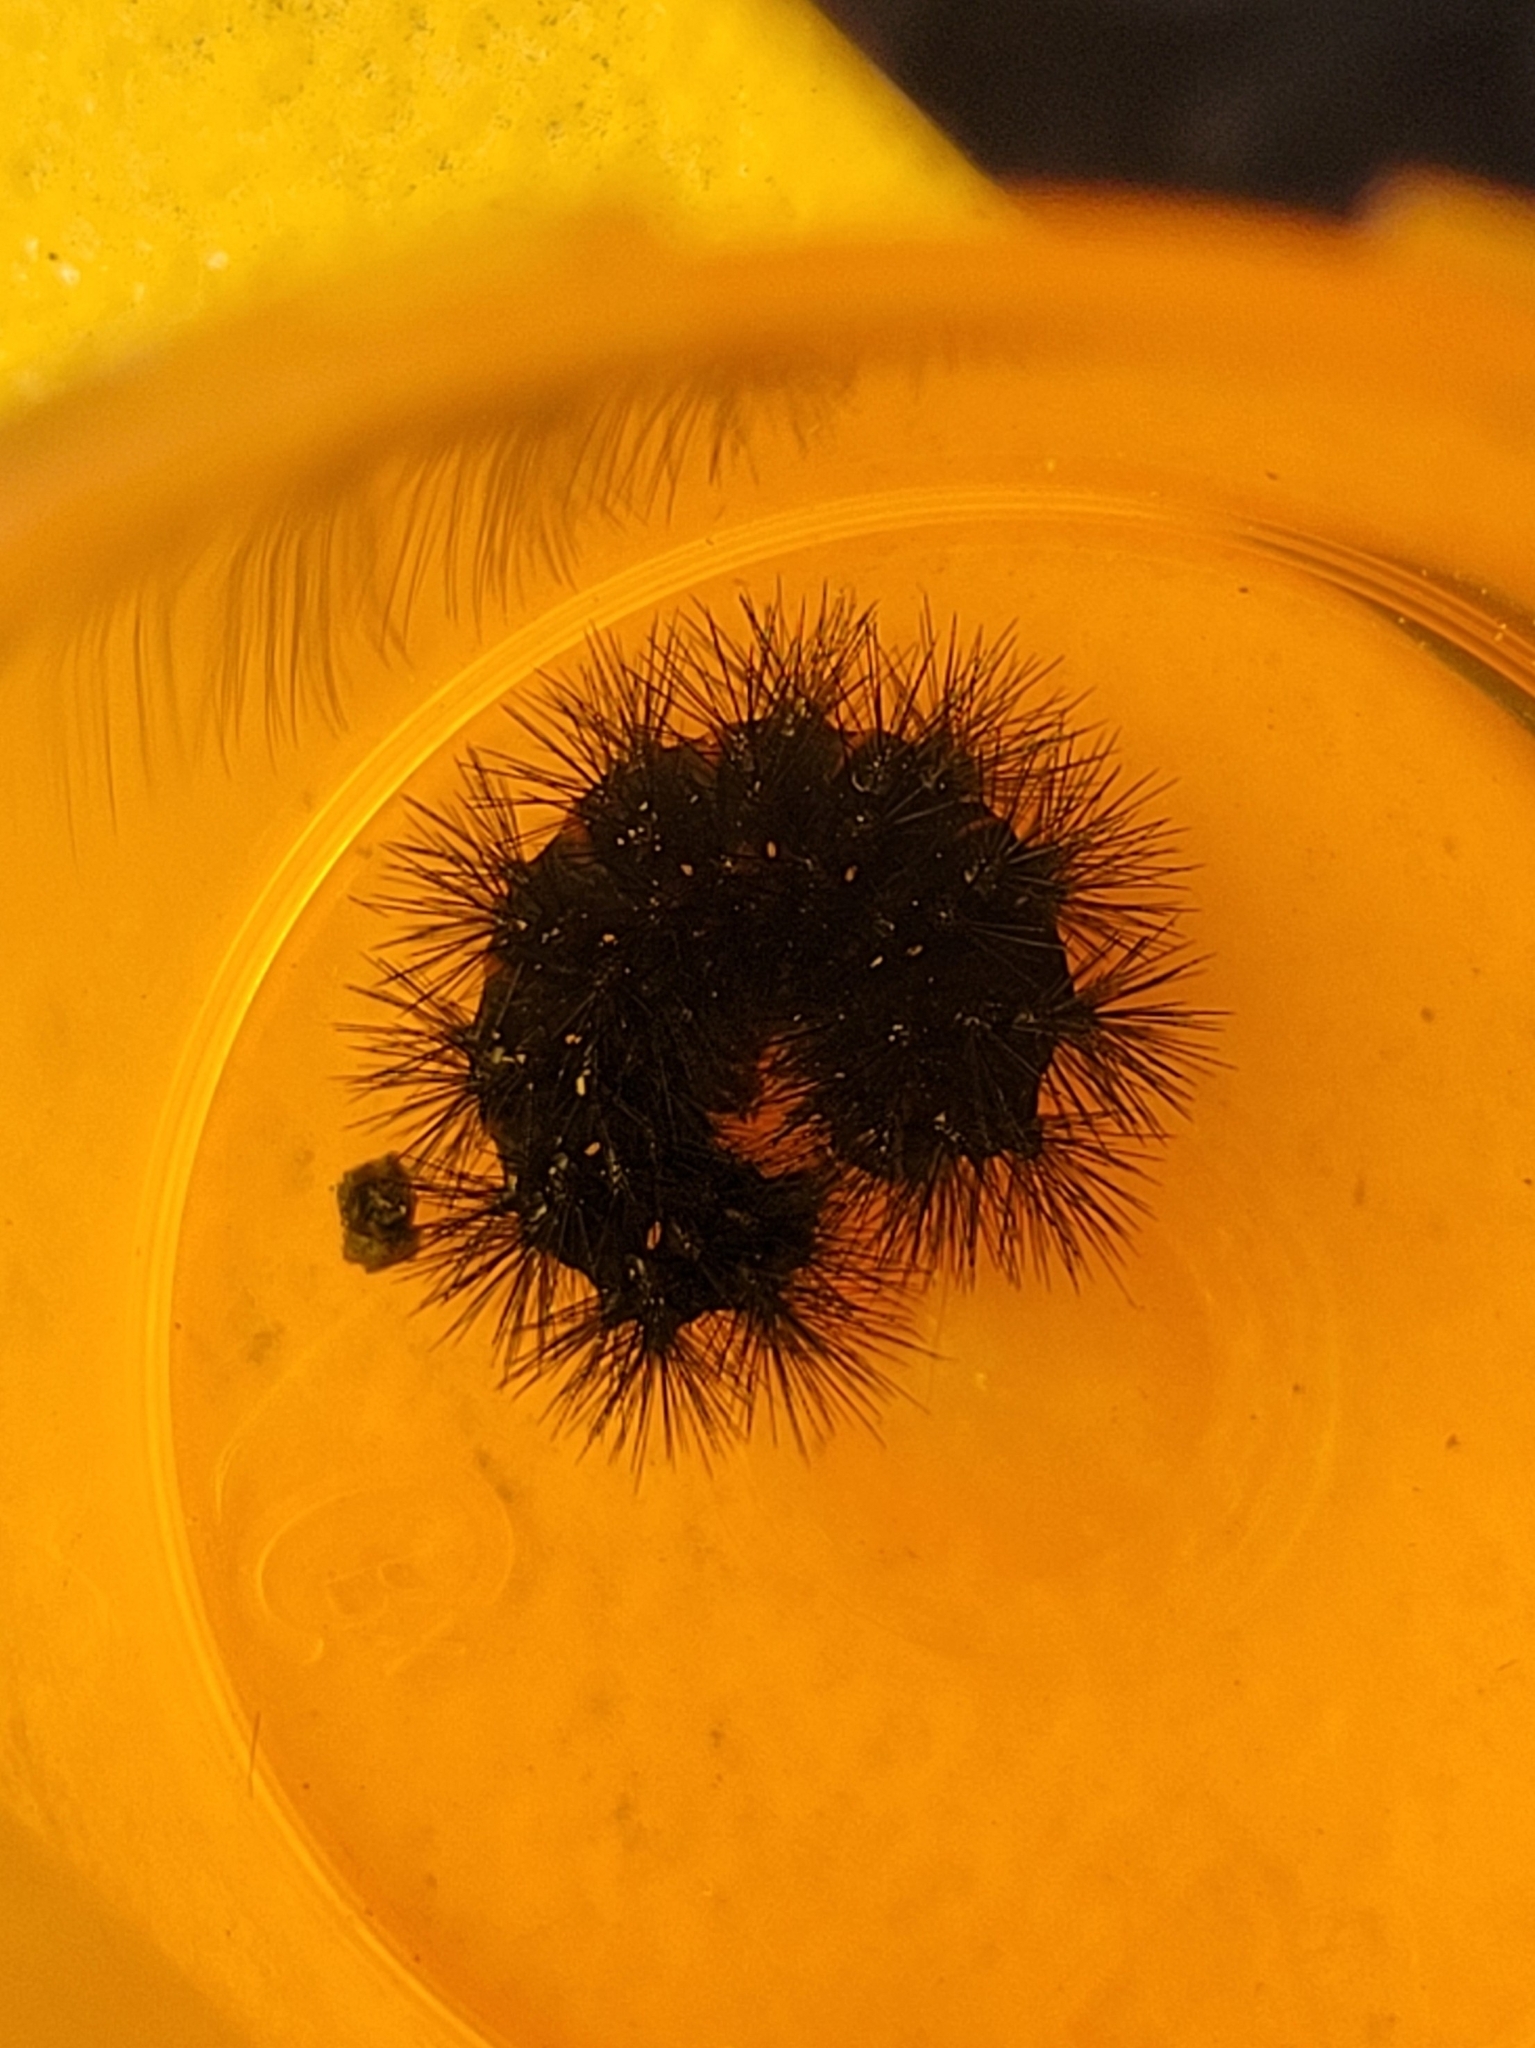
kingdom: Animalia
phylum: Arthropoda
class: Insecta
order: Lepidoptera
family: Erebidae
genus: Hypercompe
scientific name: Hypercompe scribonia
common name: Giant leopard moth
